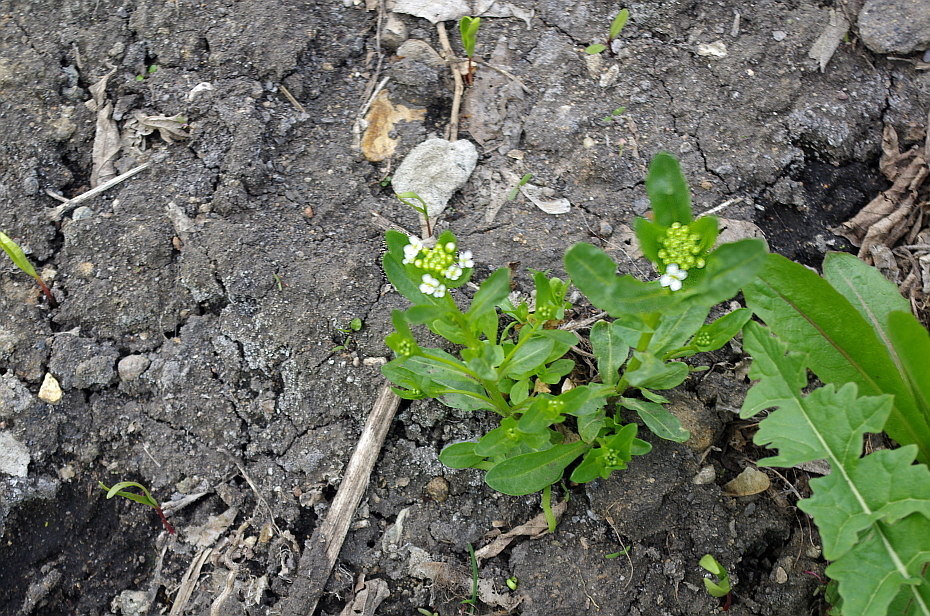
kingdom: Plantae
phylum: Tracheophyta
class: Magnoliopsida
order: Brassicales
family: Brassicaceae
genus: Thlaspi
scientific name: Thlaspi arvense
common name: Field pennycress
